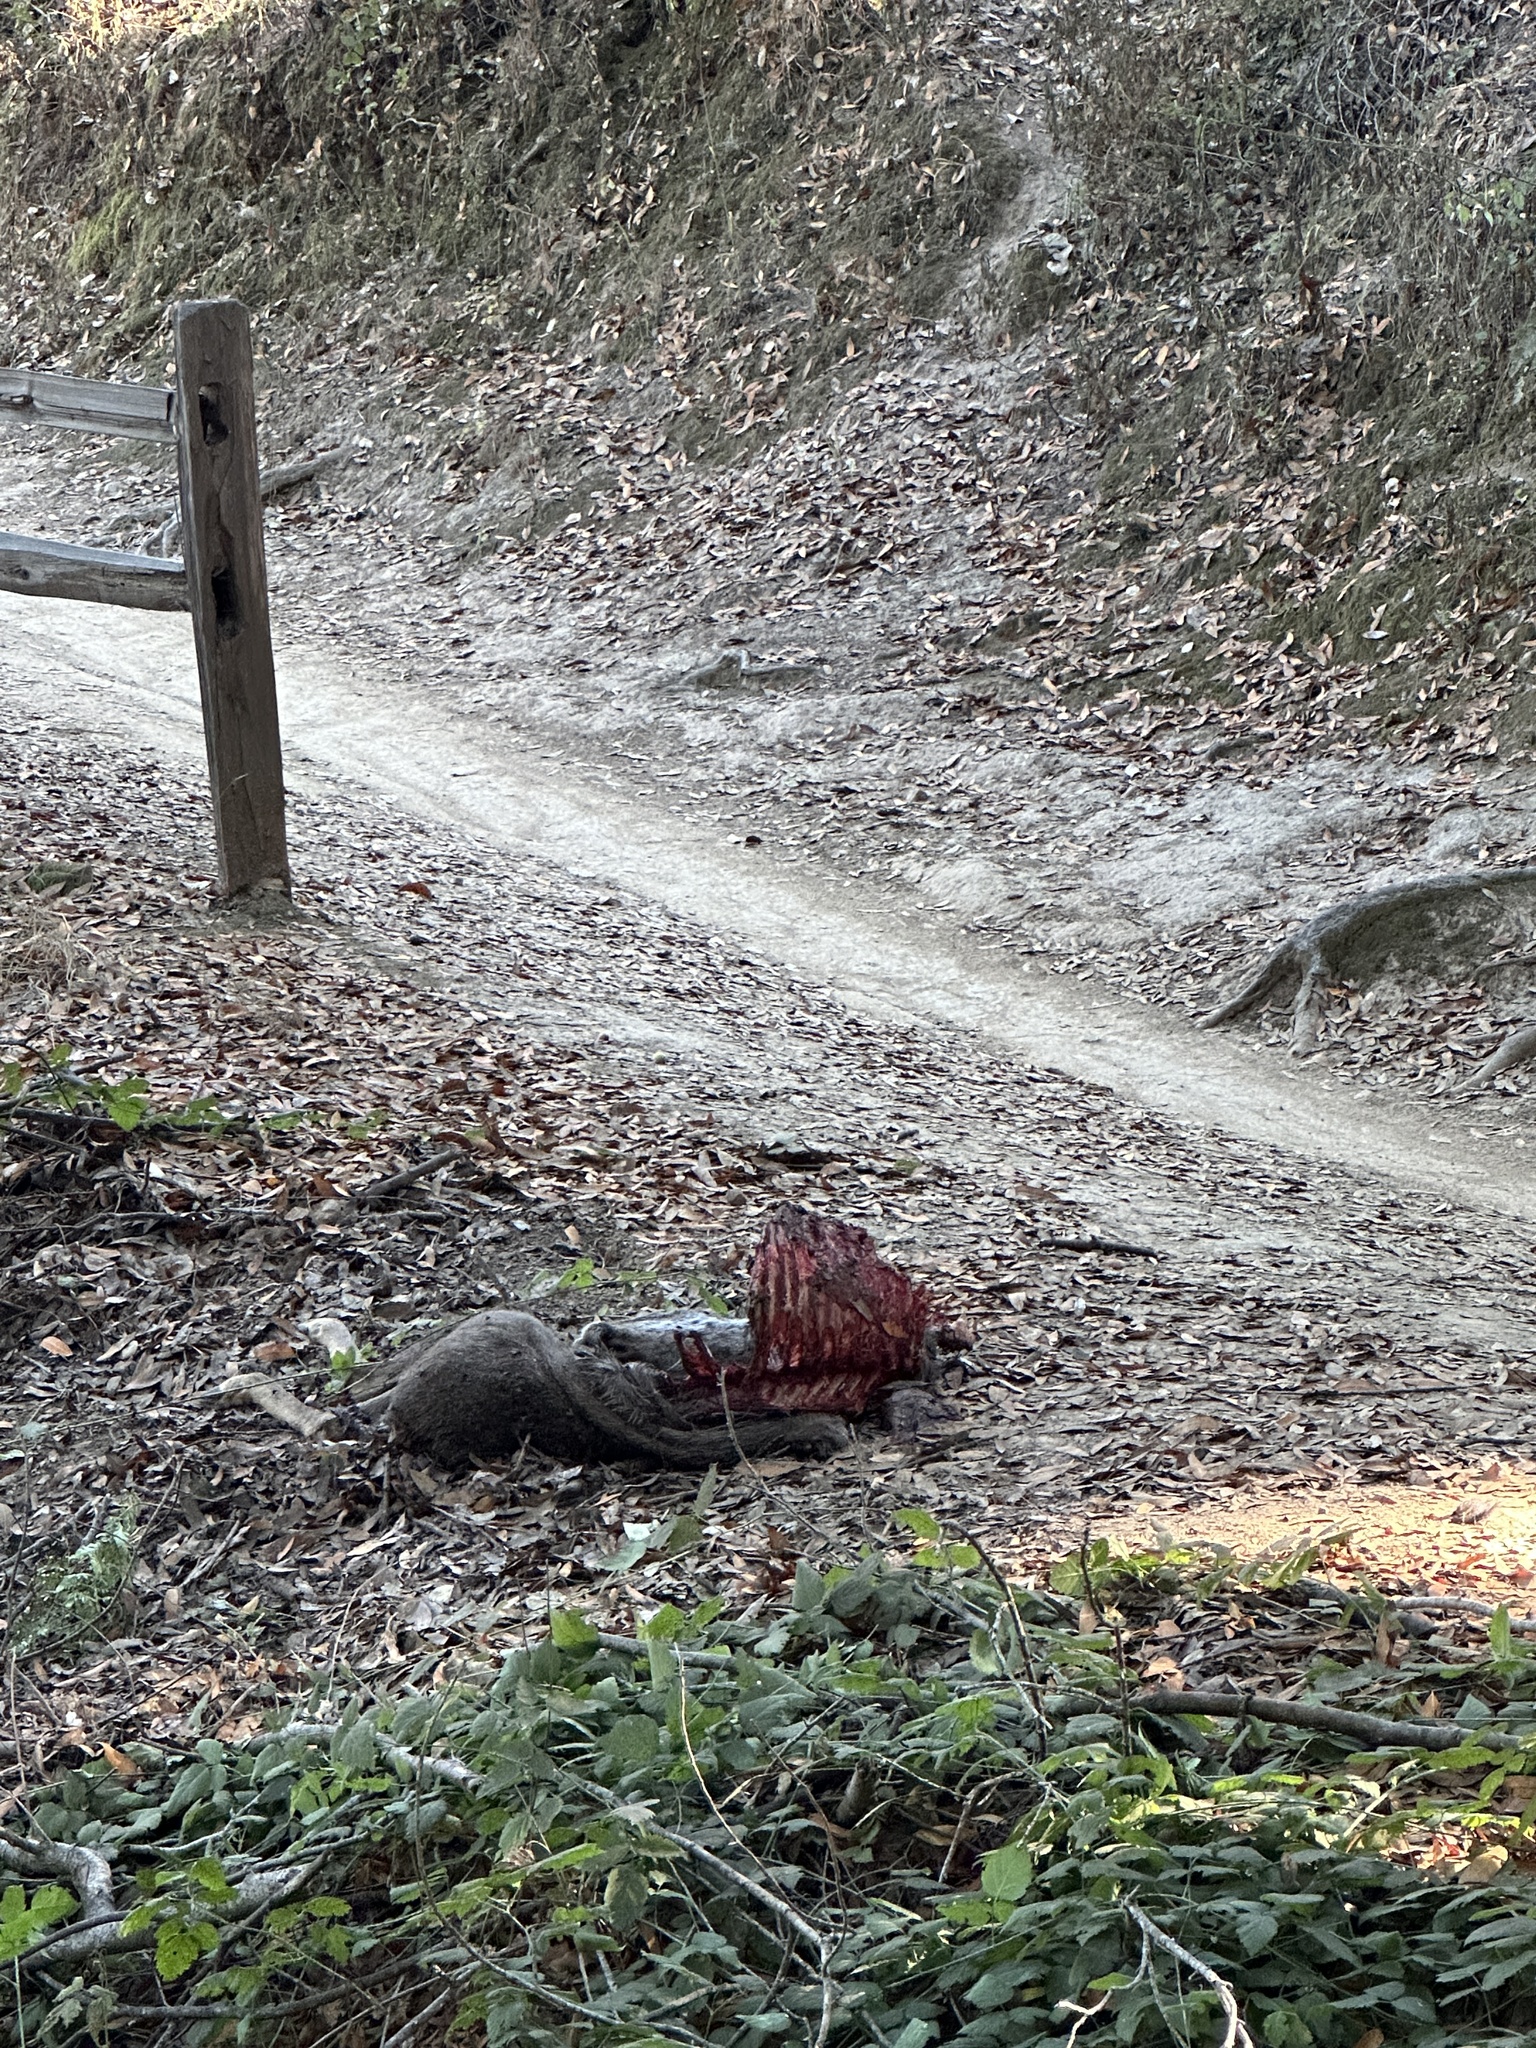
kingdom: Animalia
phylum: Chordata
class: Mammalia
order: Artiodactyla
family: Cervidae
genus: Odocoileus
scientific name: Odocoileus hemionus
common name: Mule deer
